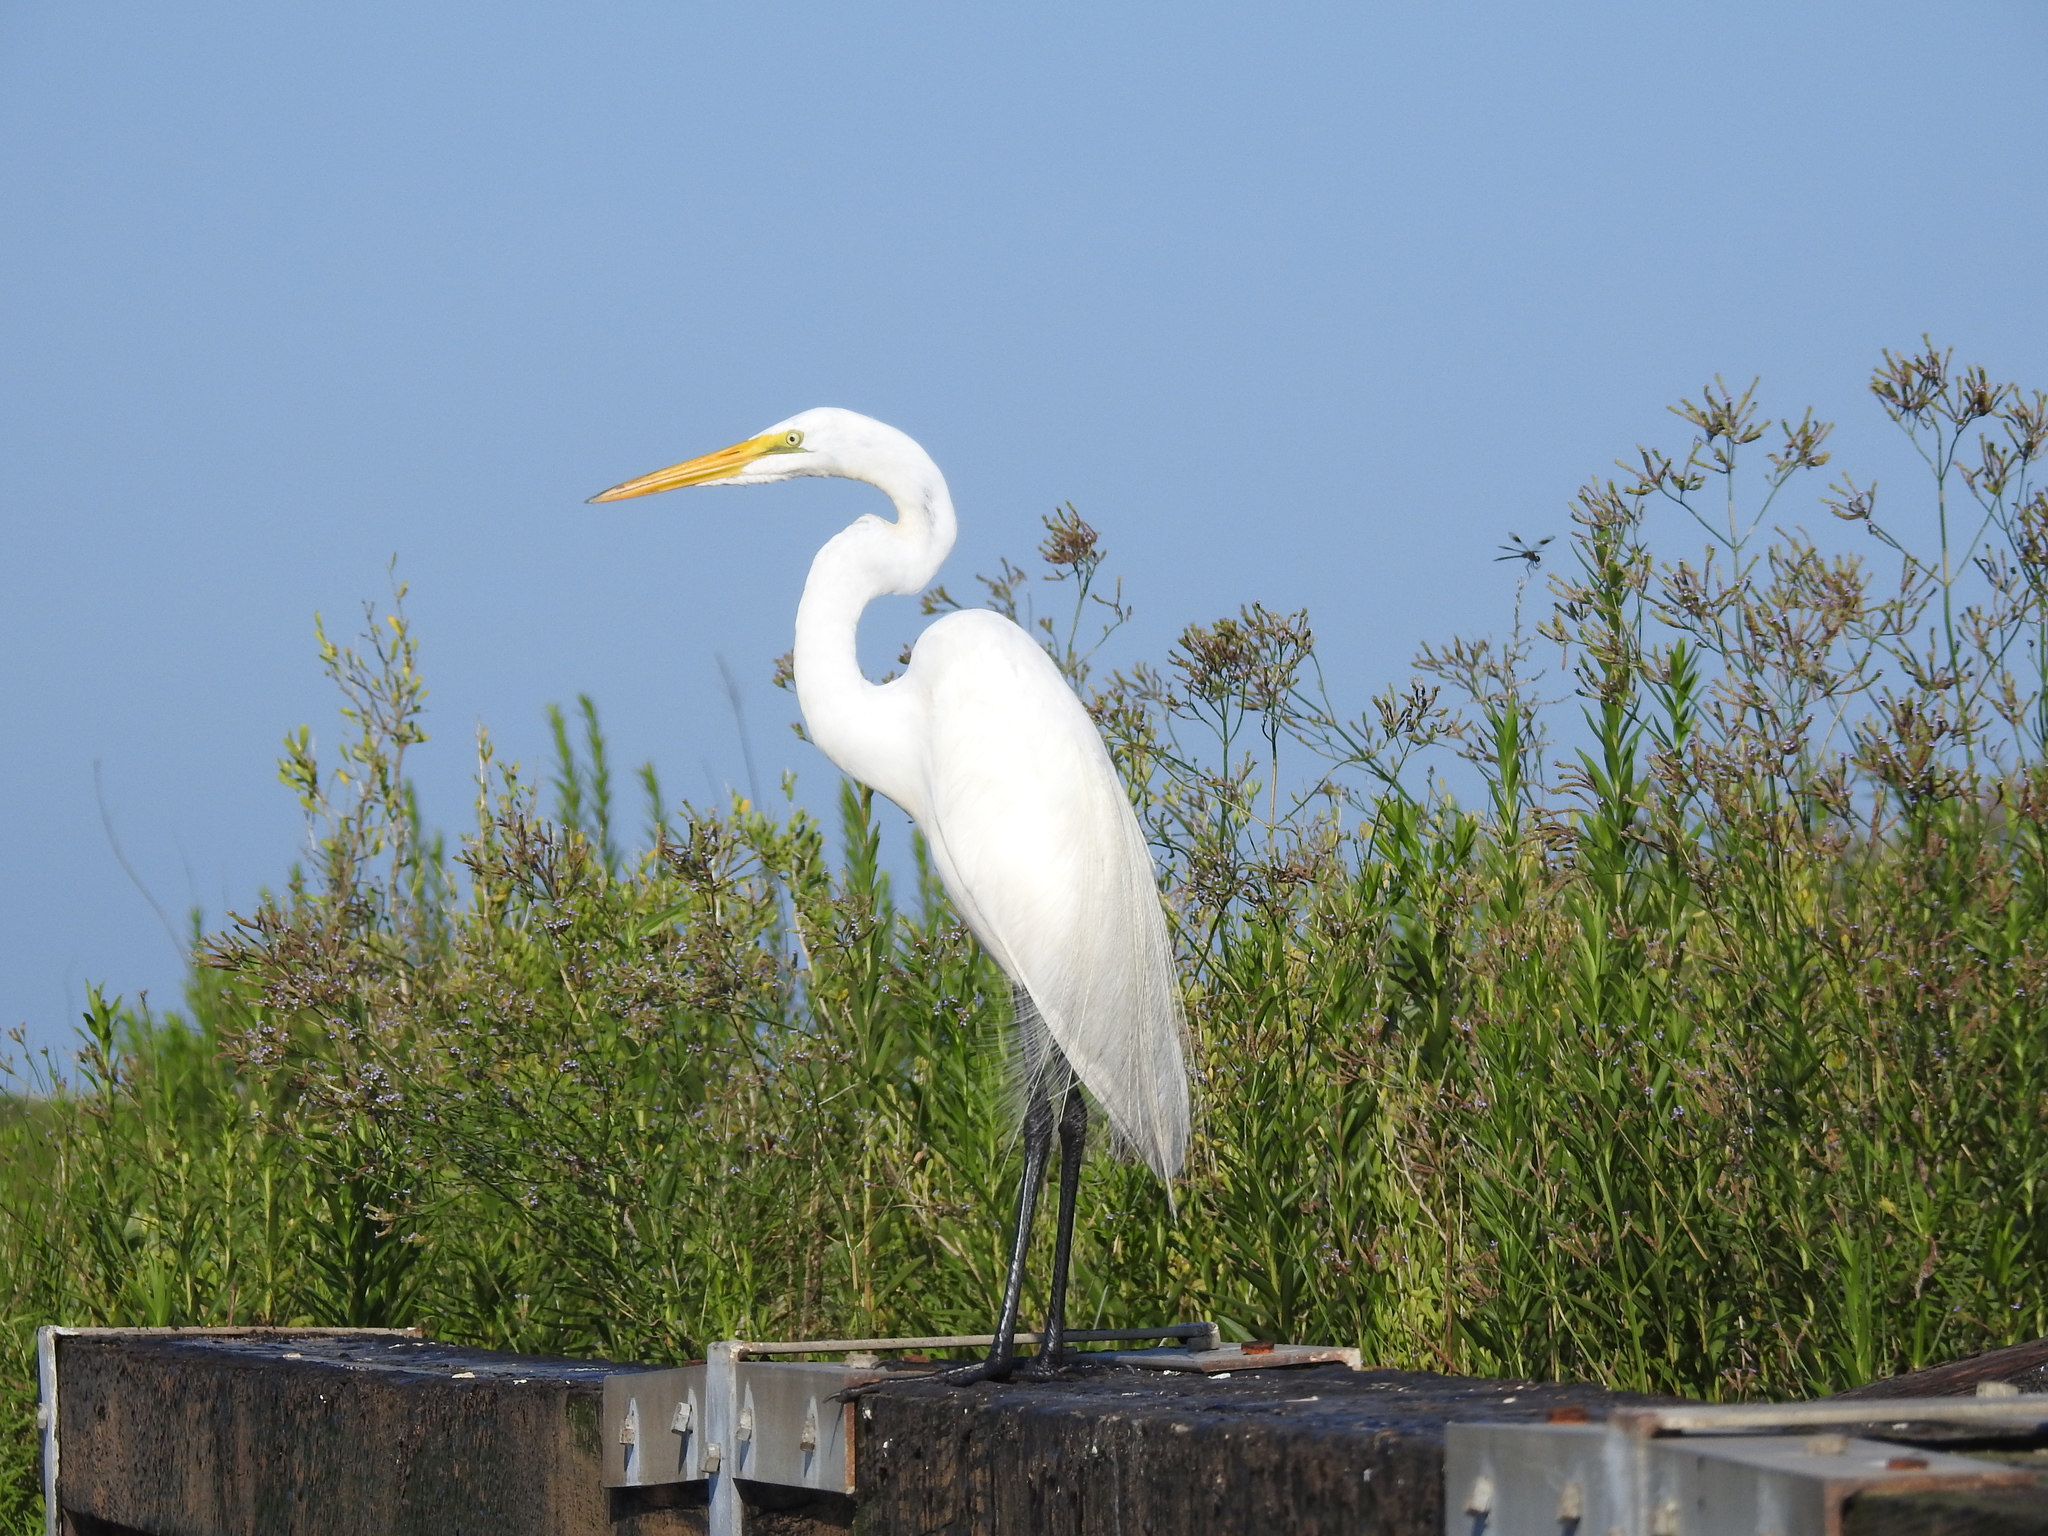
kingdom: Animalia
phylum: Chordata
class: Aves
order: Pelecaniformes
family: Ardeidae
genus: Ardea
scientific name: Ardea alba
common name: Great egret
